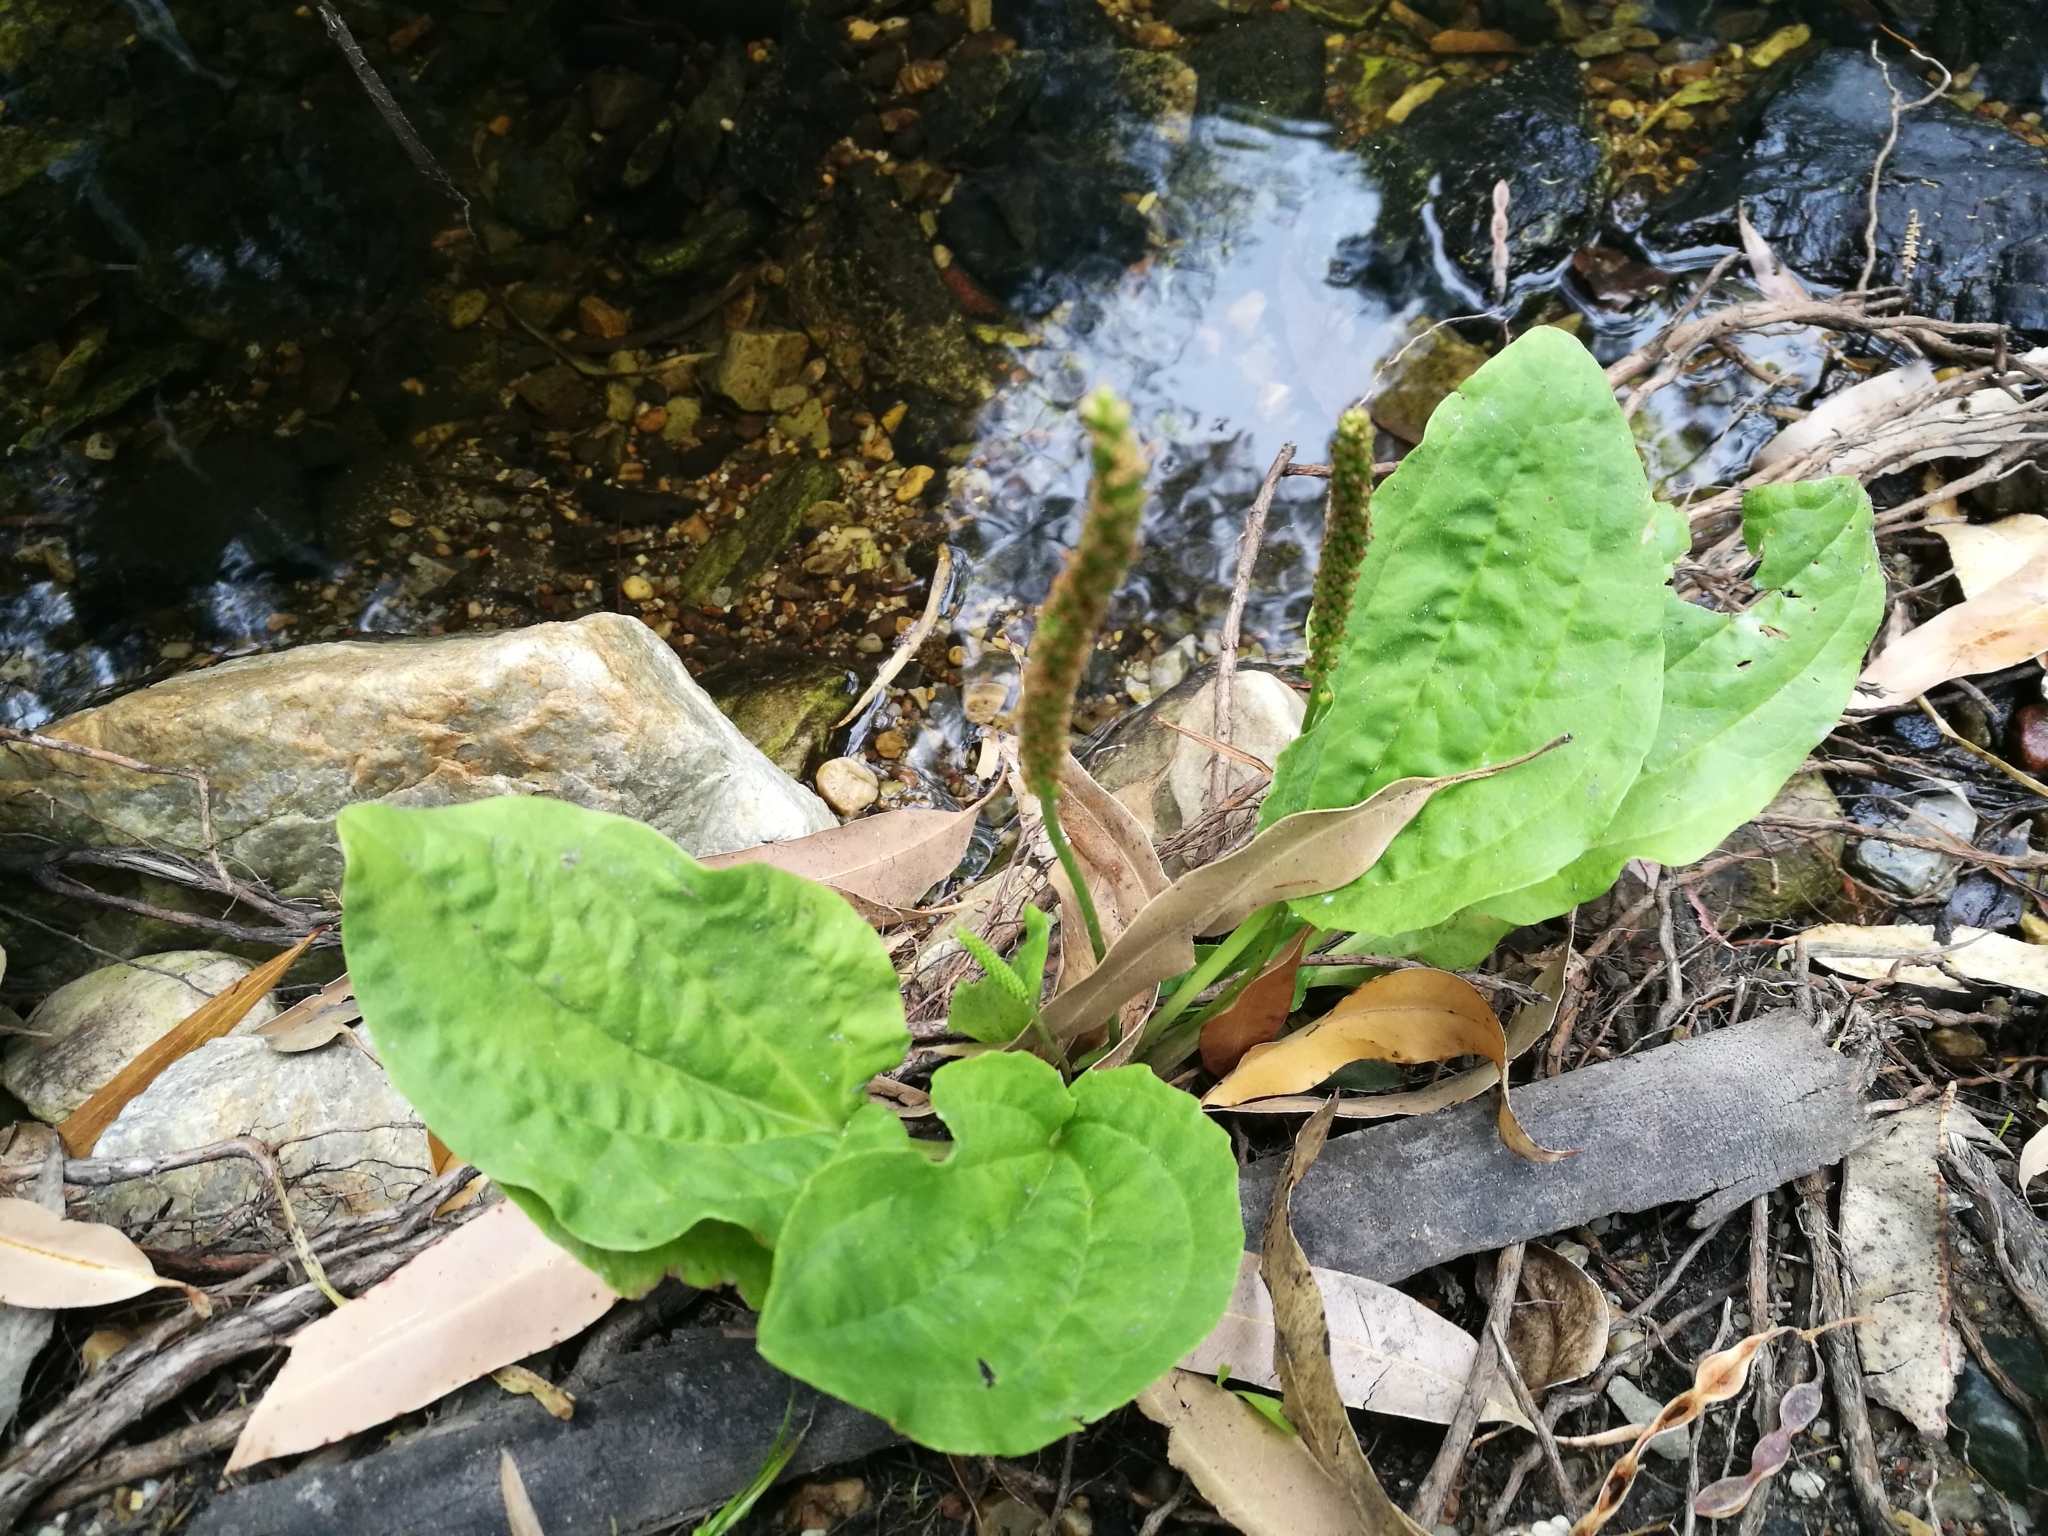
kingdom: Plantae
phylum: Tracheophyta
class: Magnoliopsida
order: Lamiales
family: Plantaginaceae
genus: Plantago
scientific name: Plantago major
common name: Common plantain
